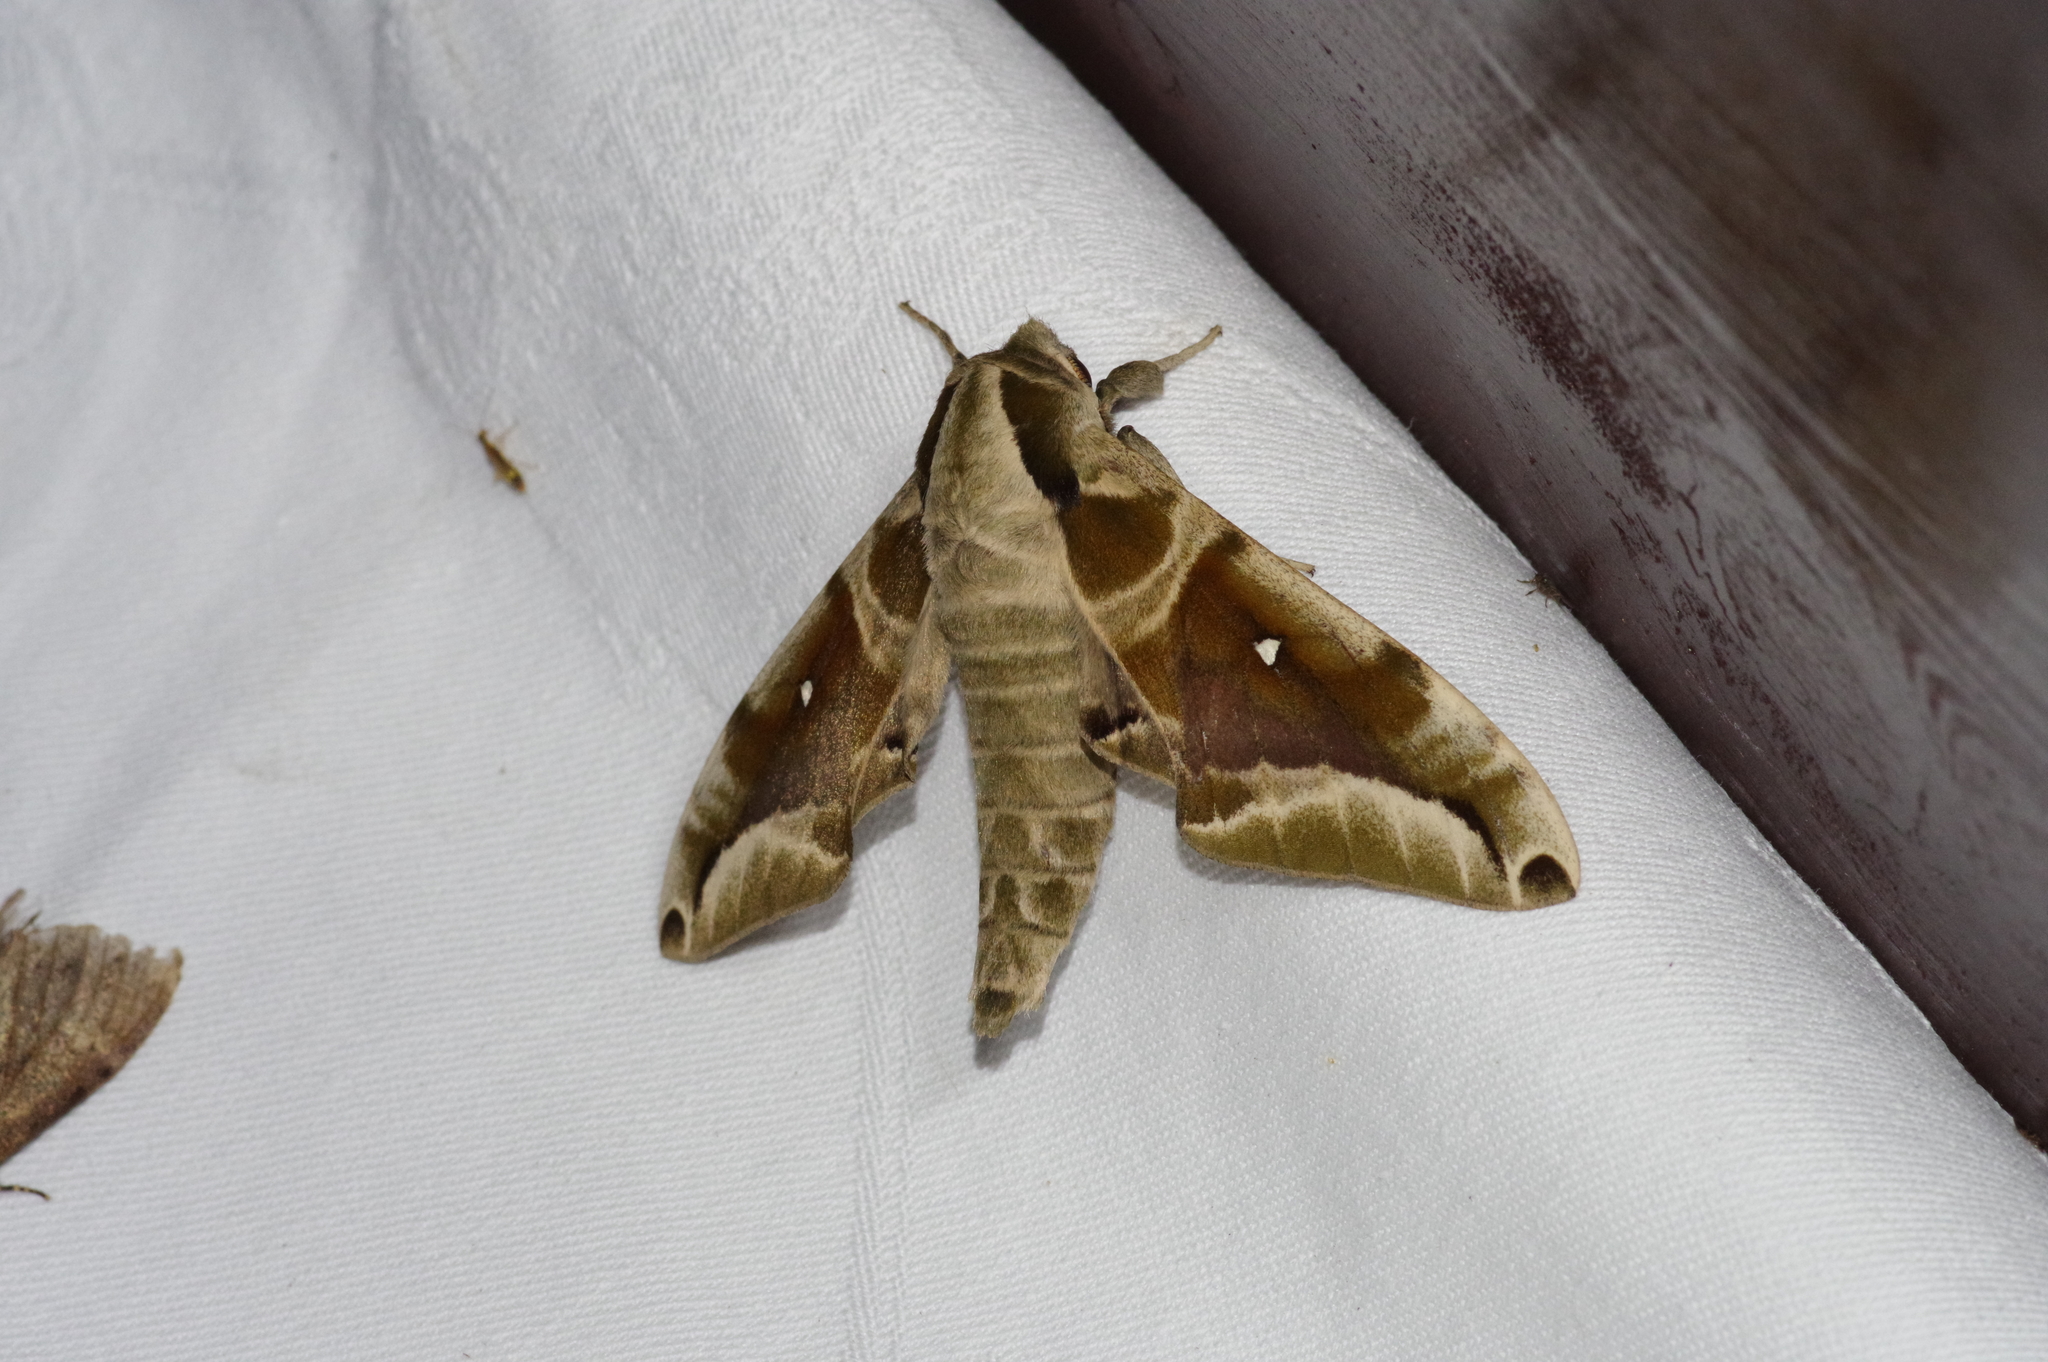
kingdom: Animalia
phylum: Arthropoda
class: Insecta
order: Lepidoptera
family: Sphingidae
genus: Parum
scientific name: Parum colligata
